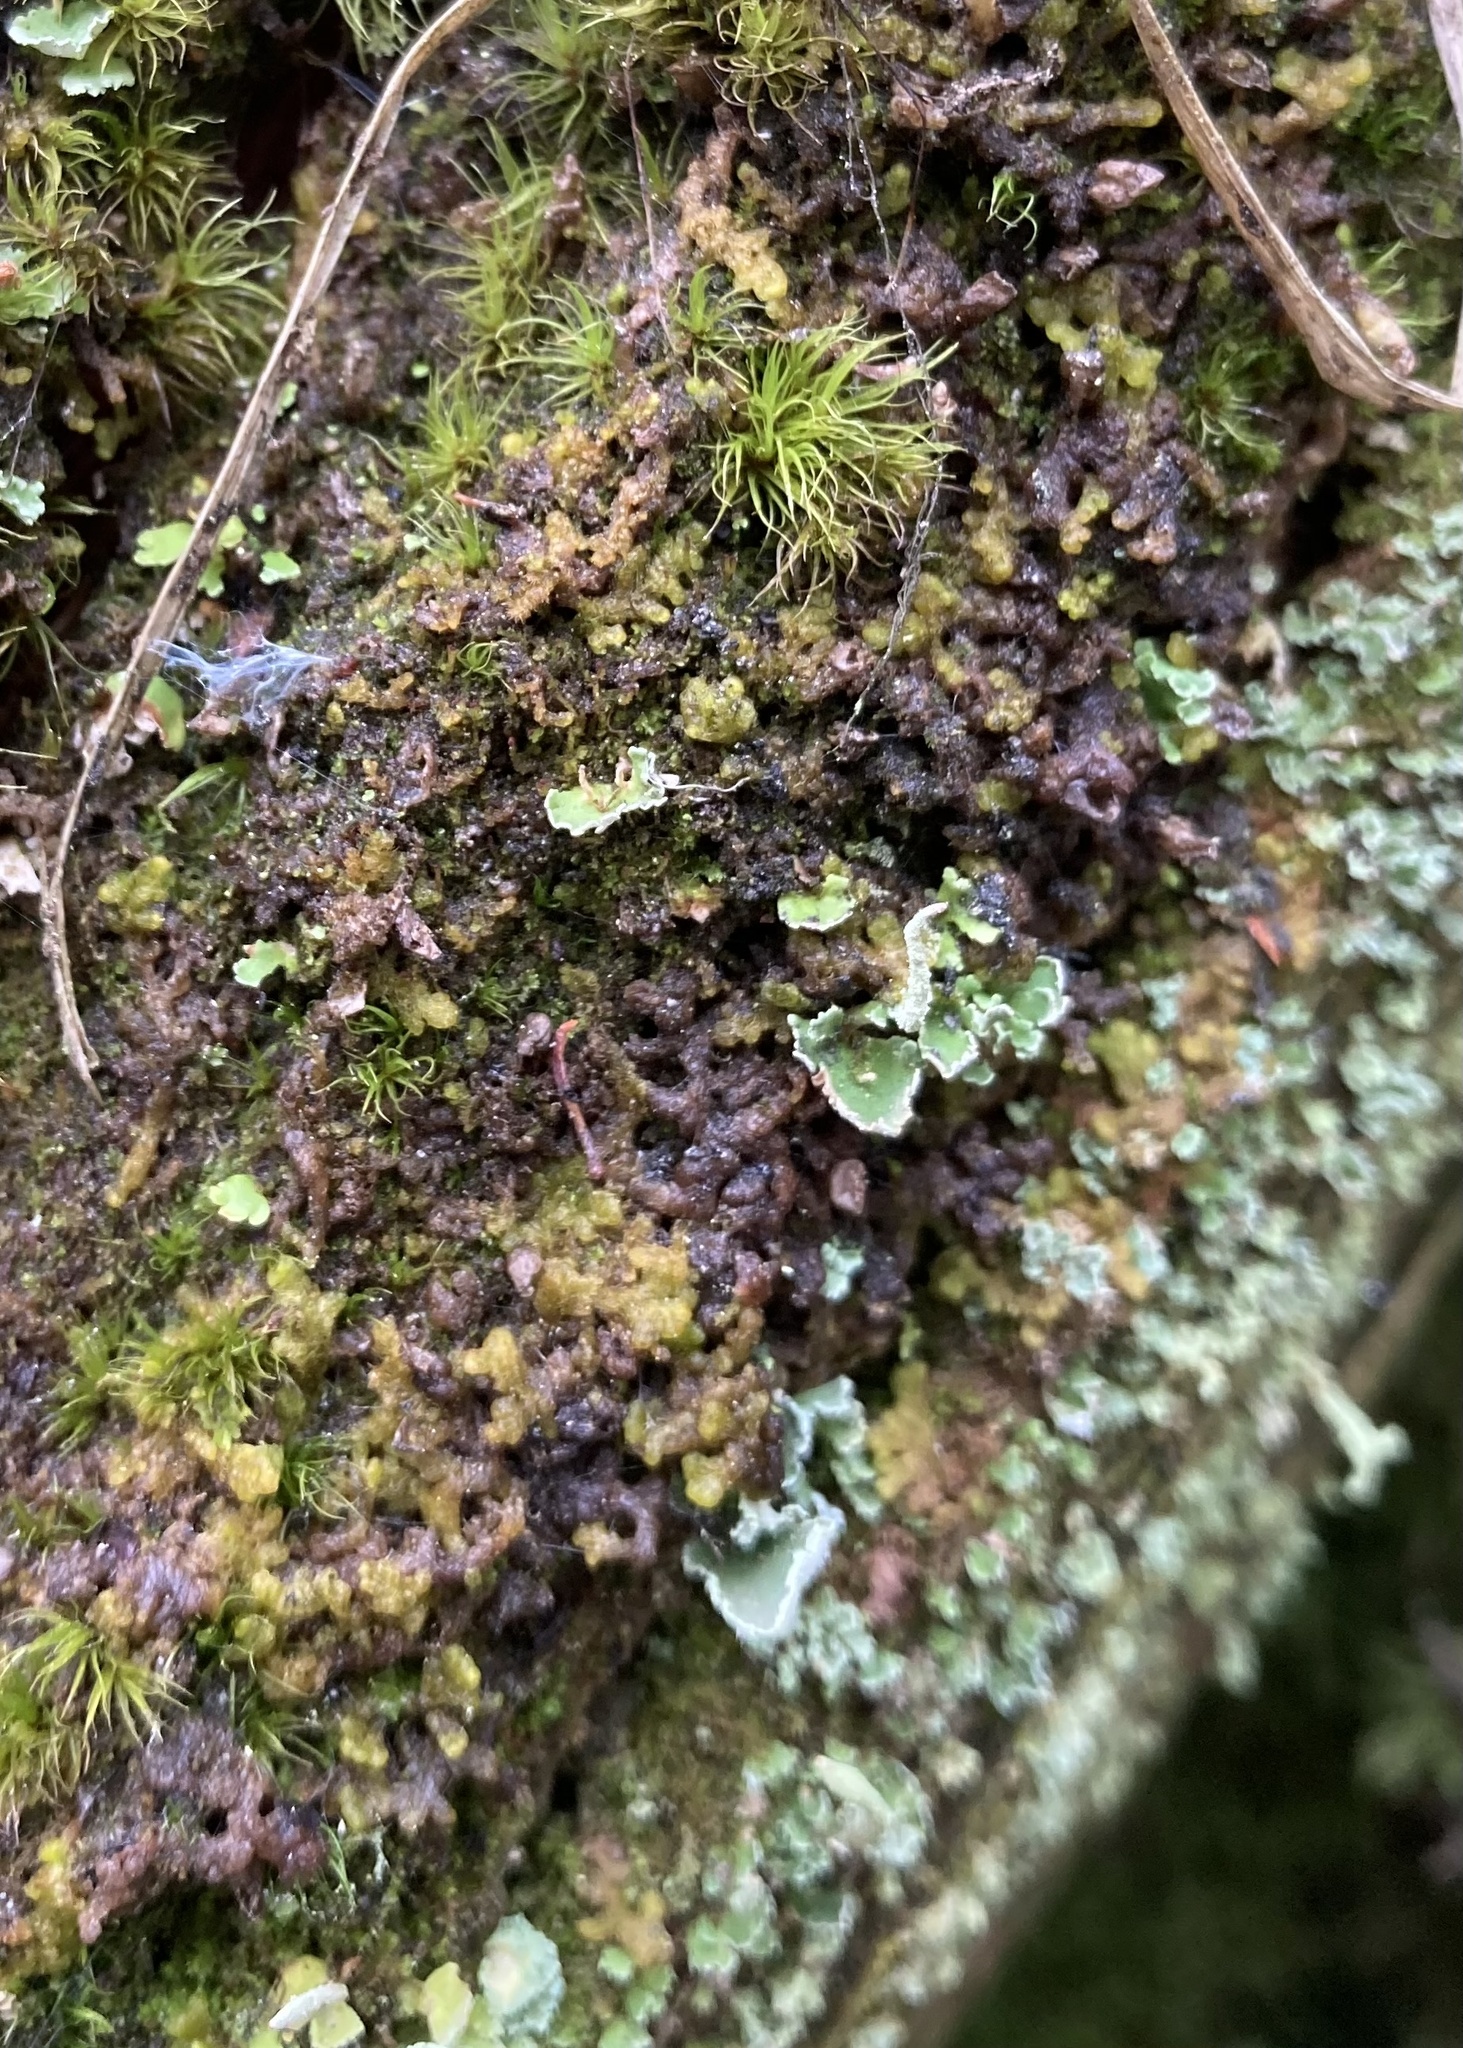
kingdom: Plantae
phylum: Marchantiophyta
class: Jungermanniopsida
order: Ptilidiales
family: Ptilidiaceae
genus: Ptilidium
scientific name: Ptilidium pulcherrimum
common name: Tree fringewort
